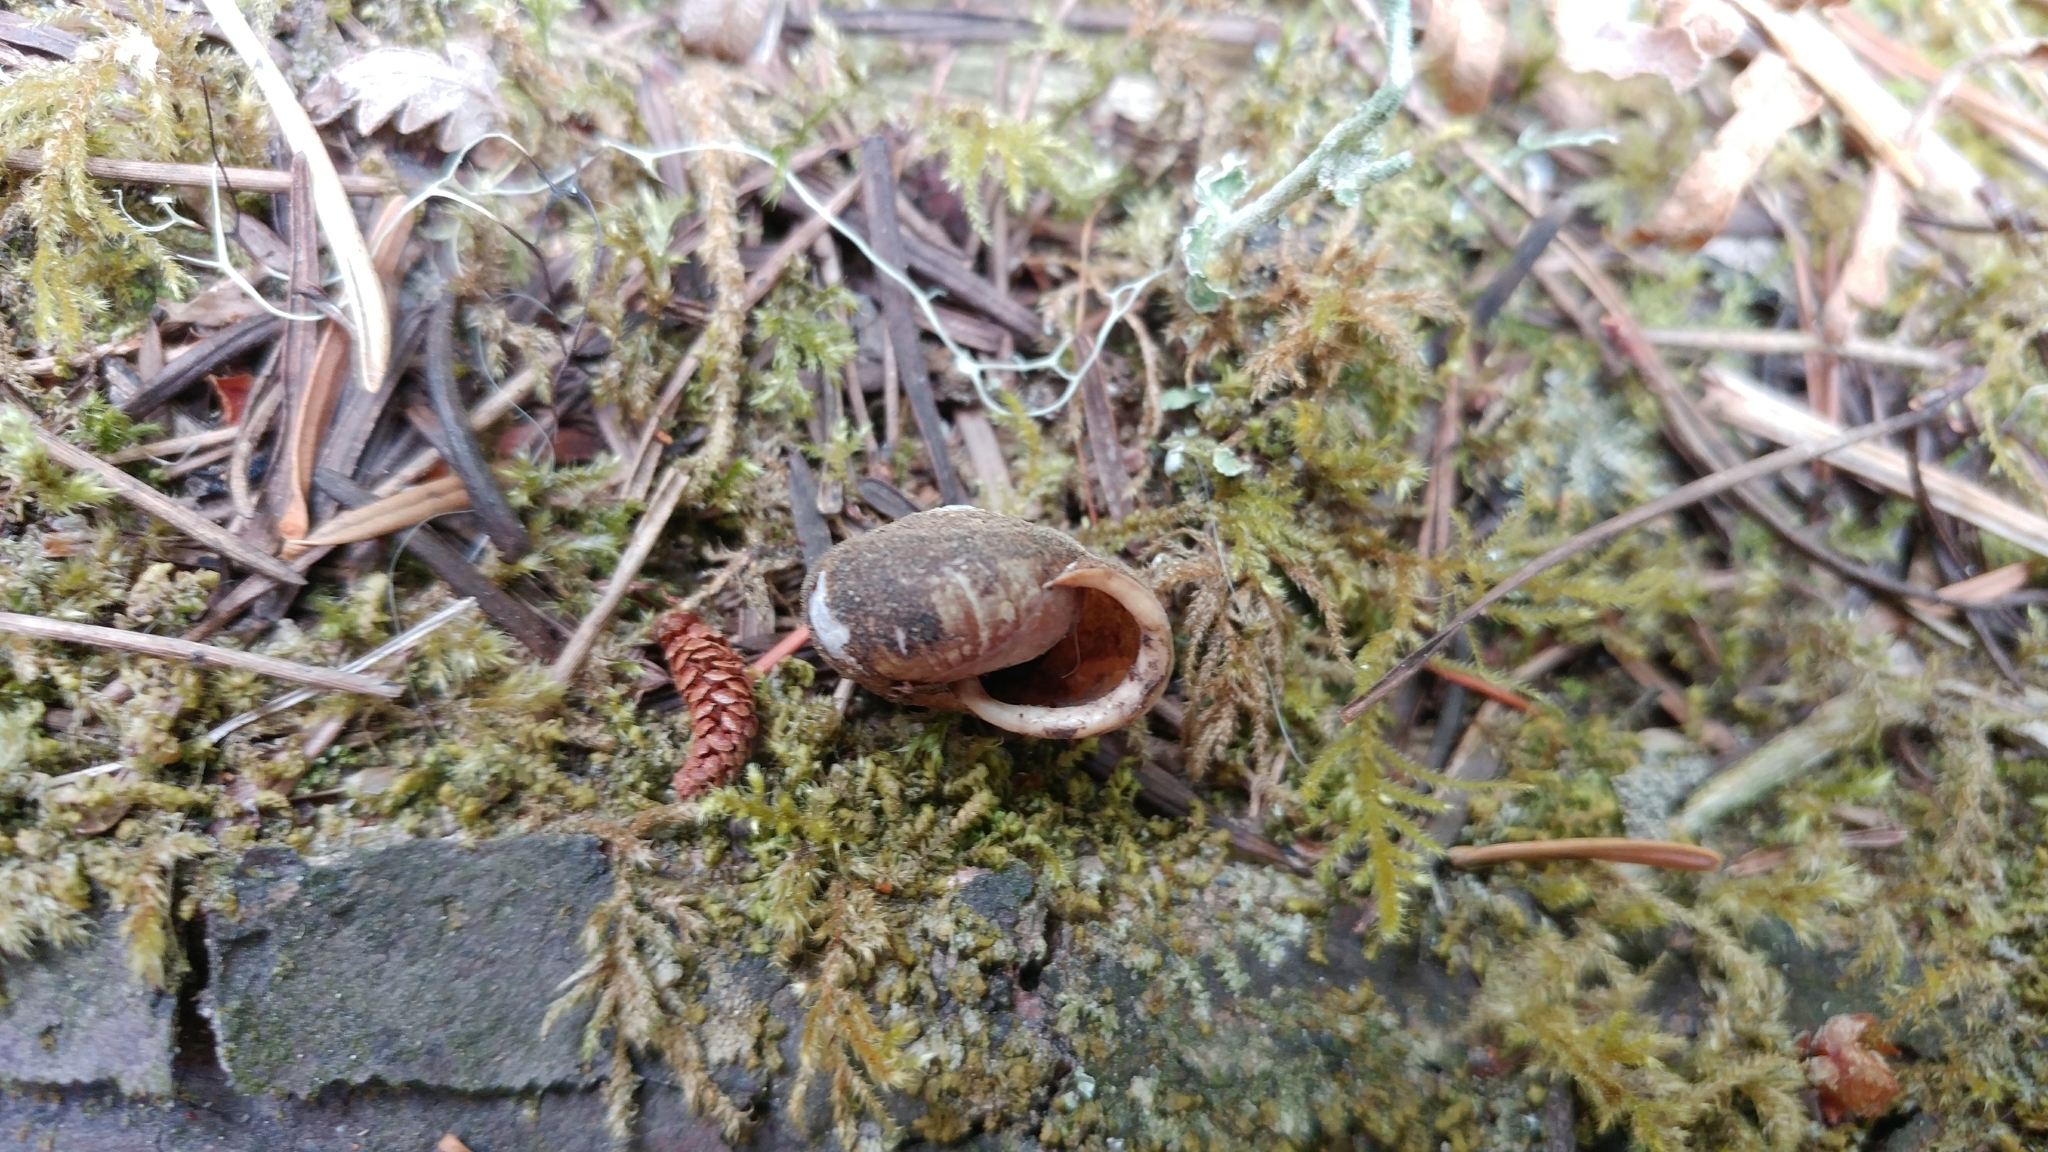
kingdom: Animalia
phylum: Mollusca
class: Gastropoda
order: Stylommatophora
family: Polygyridae
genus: Vespericola
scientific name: Vespericola megasoma
